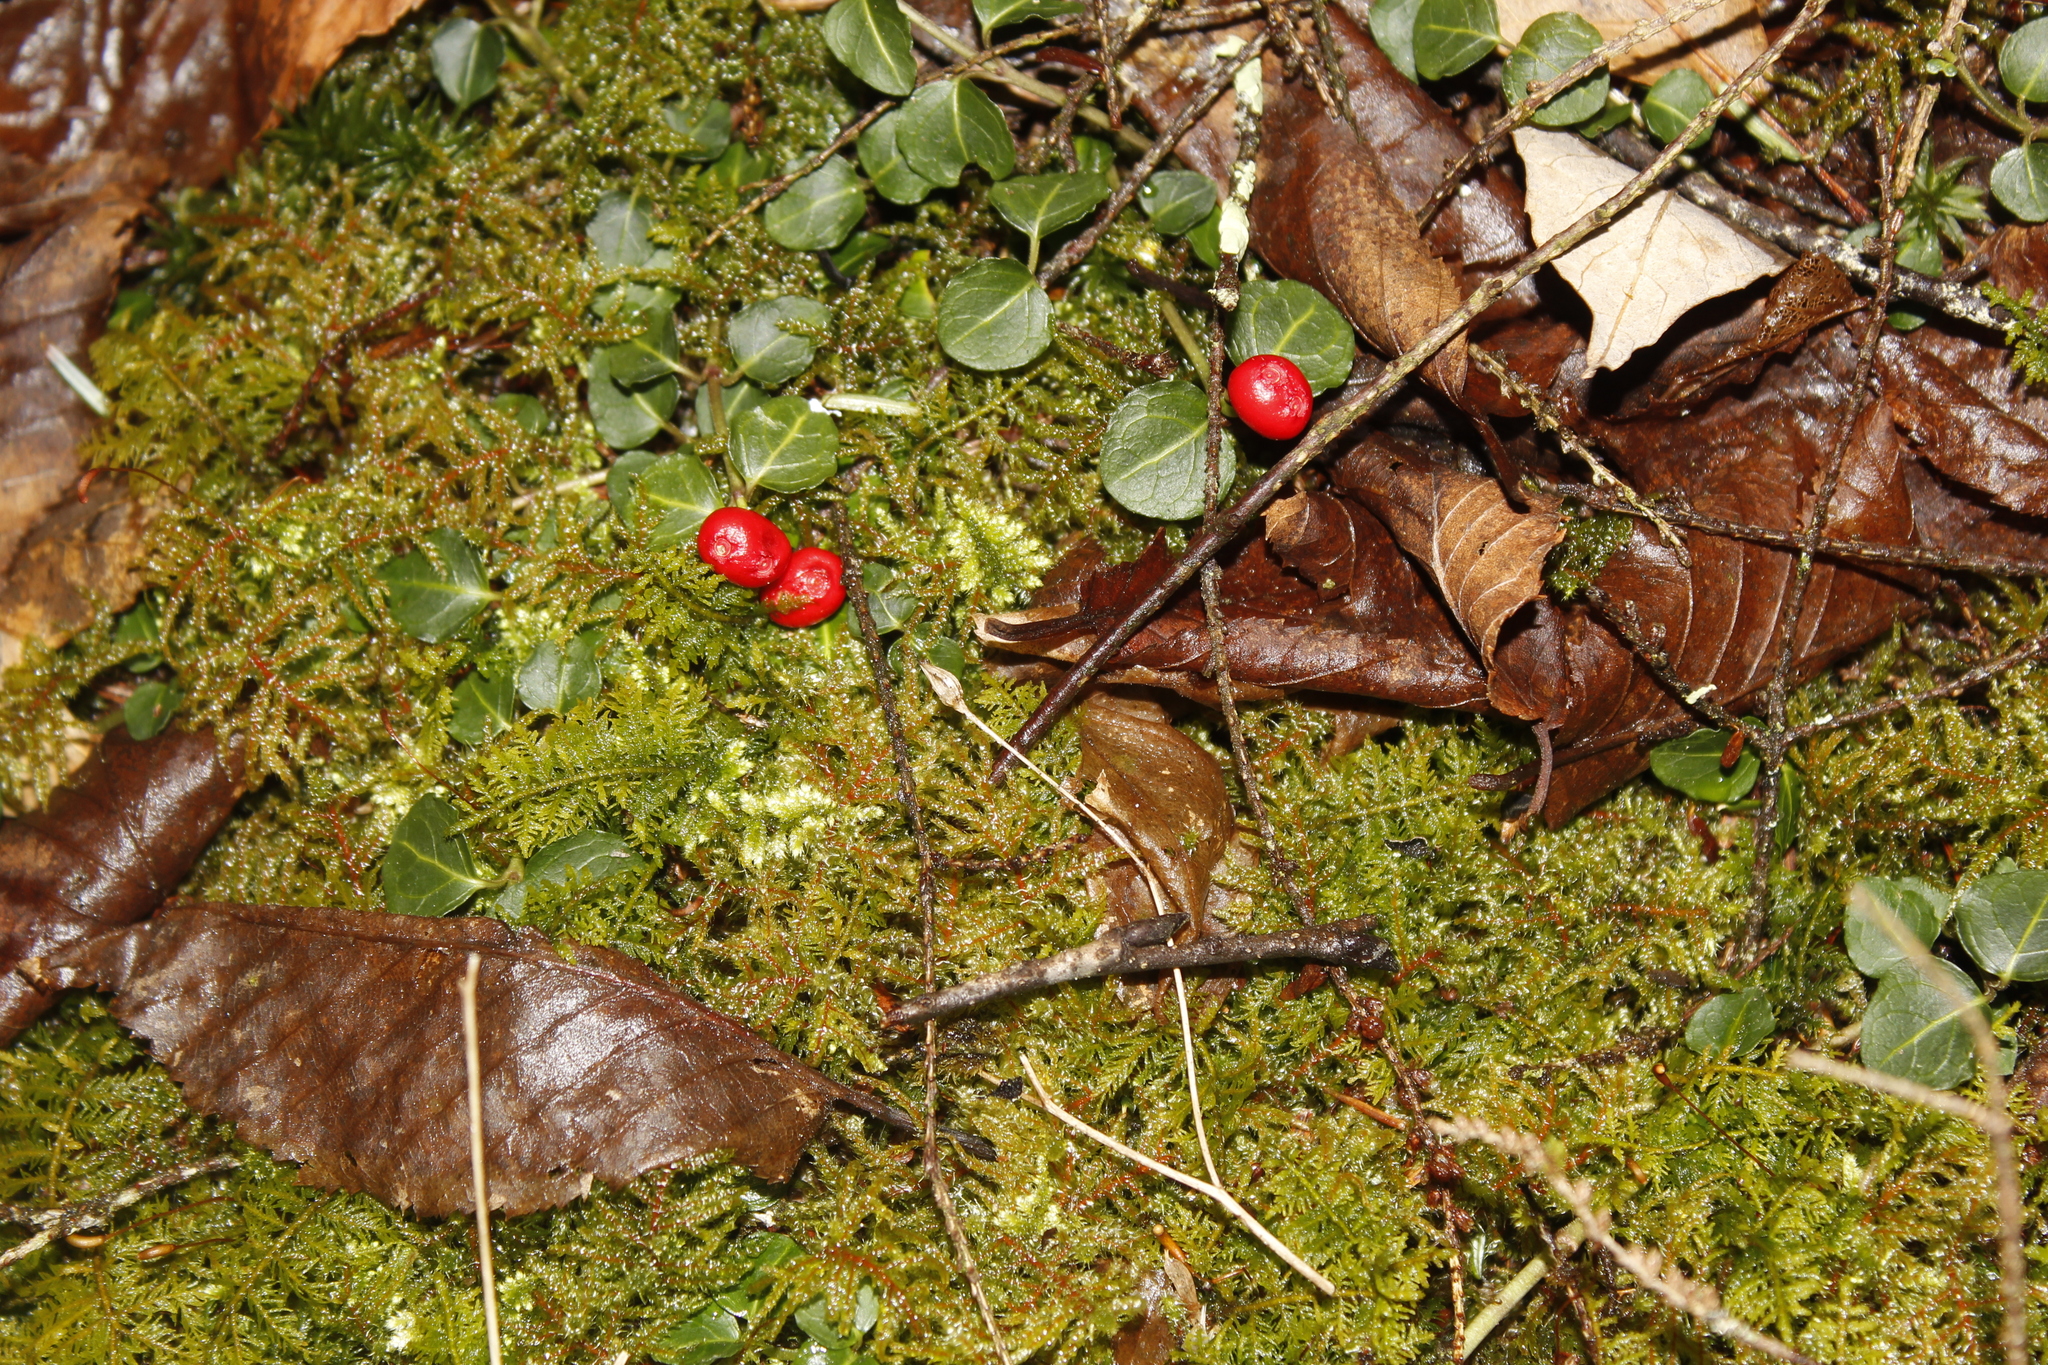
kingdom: Plantae
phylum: Tracheophyta
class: Magnoliopsida
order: Gentianales
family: Rubiaceae
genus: Mitchella
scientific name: Mitchella repens
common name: Partridge-berry
